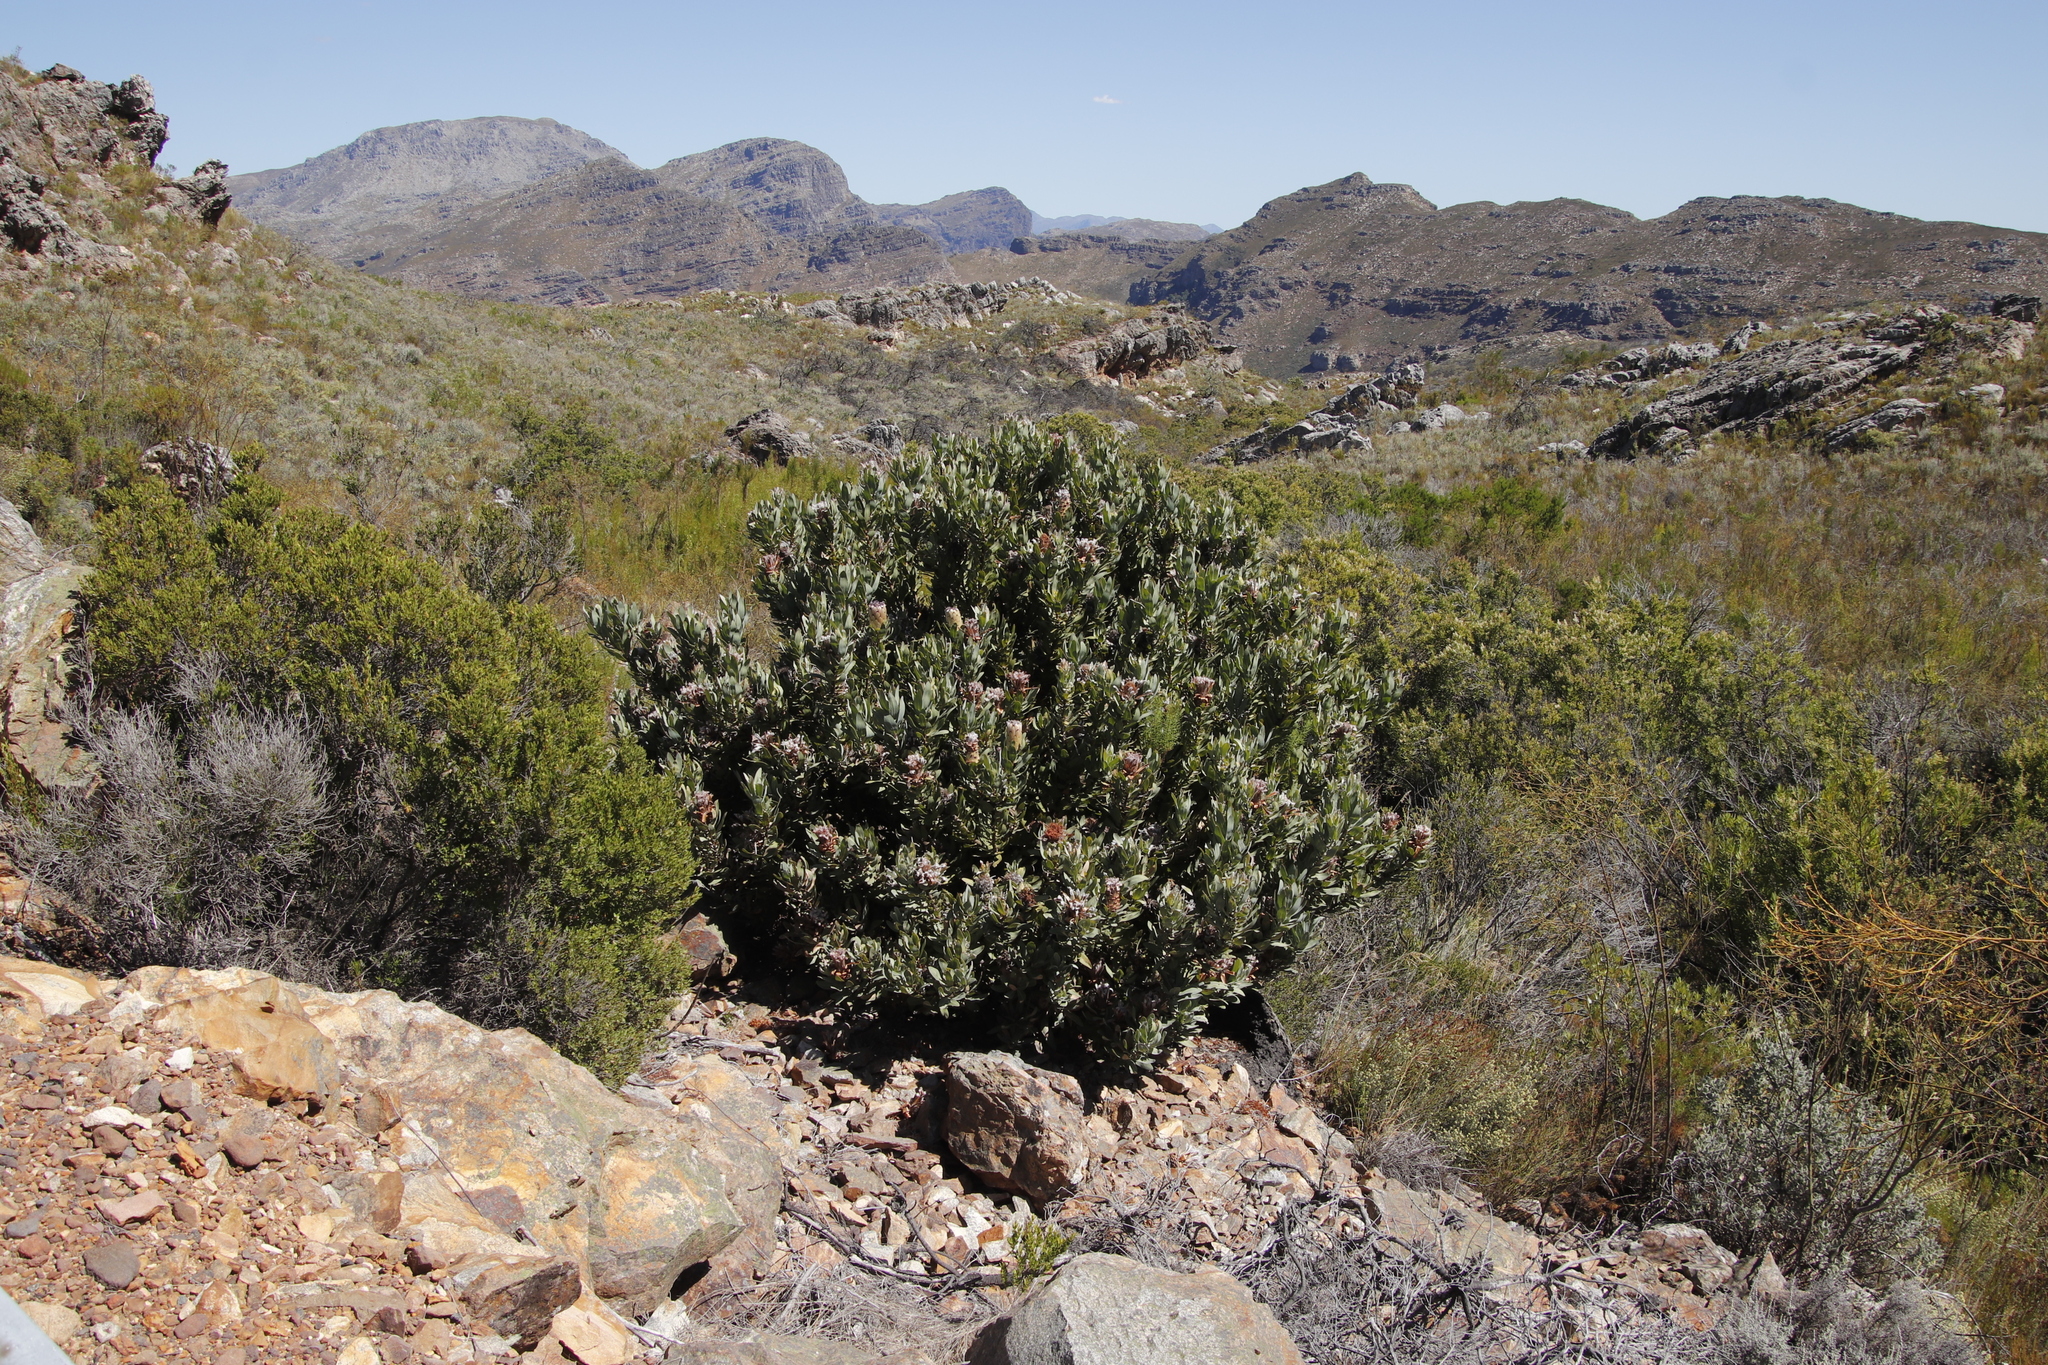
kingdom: Plantae
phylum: Tracheophyta
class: Magnoliopsida
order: Proteales
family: Proteaceae
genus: Protea
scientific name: Protea laurifolia
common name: Grey-leaf sugarbsh
